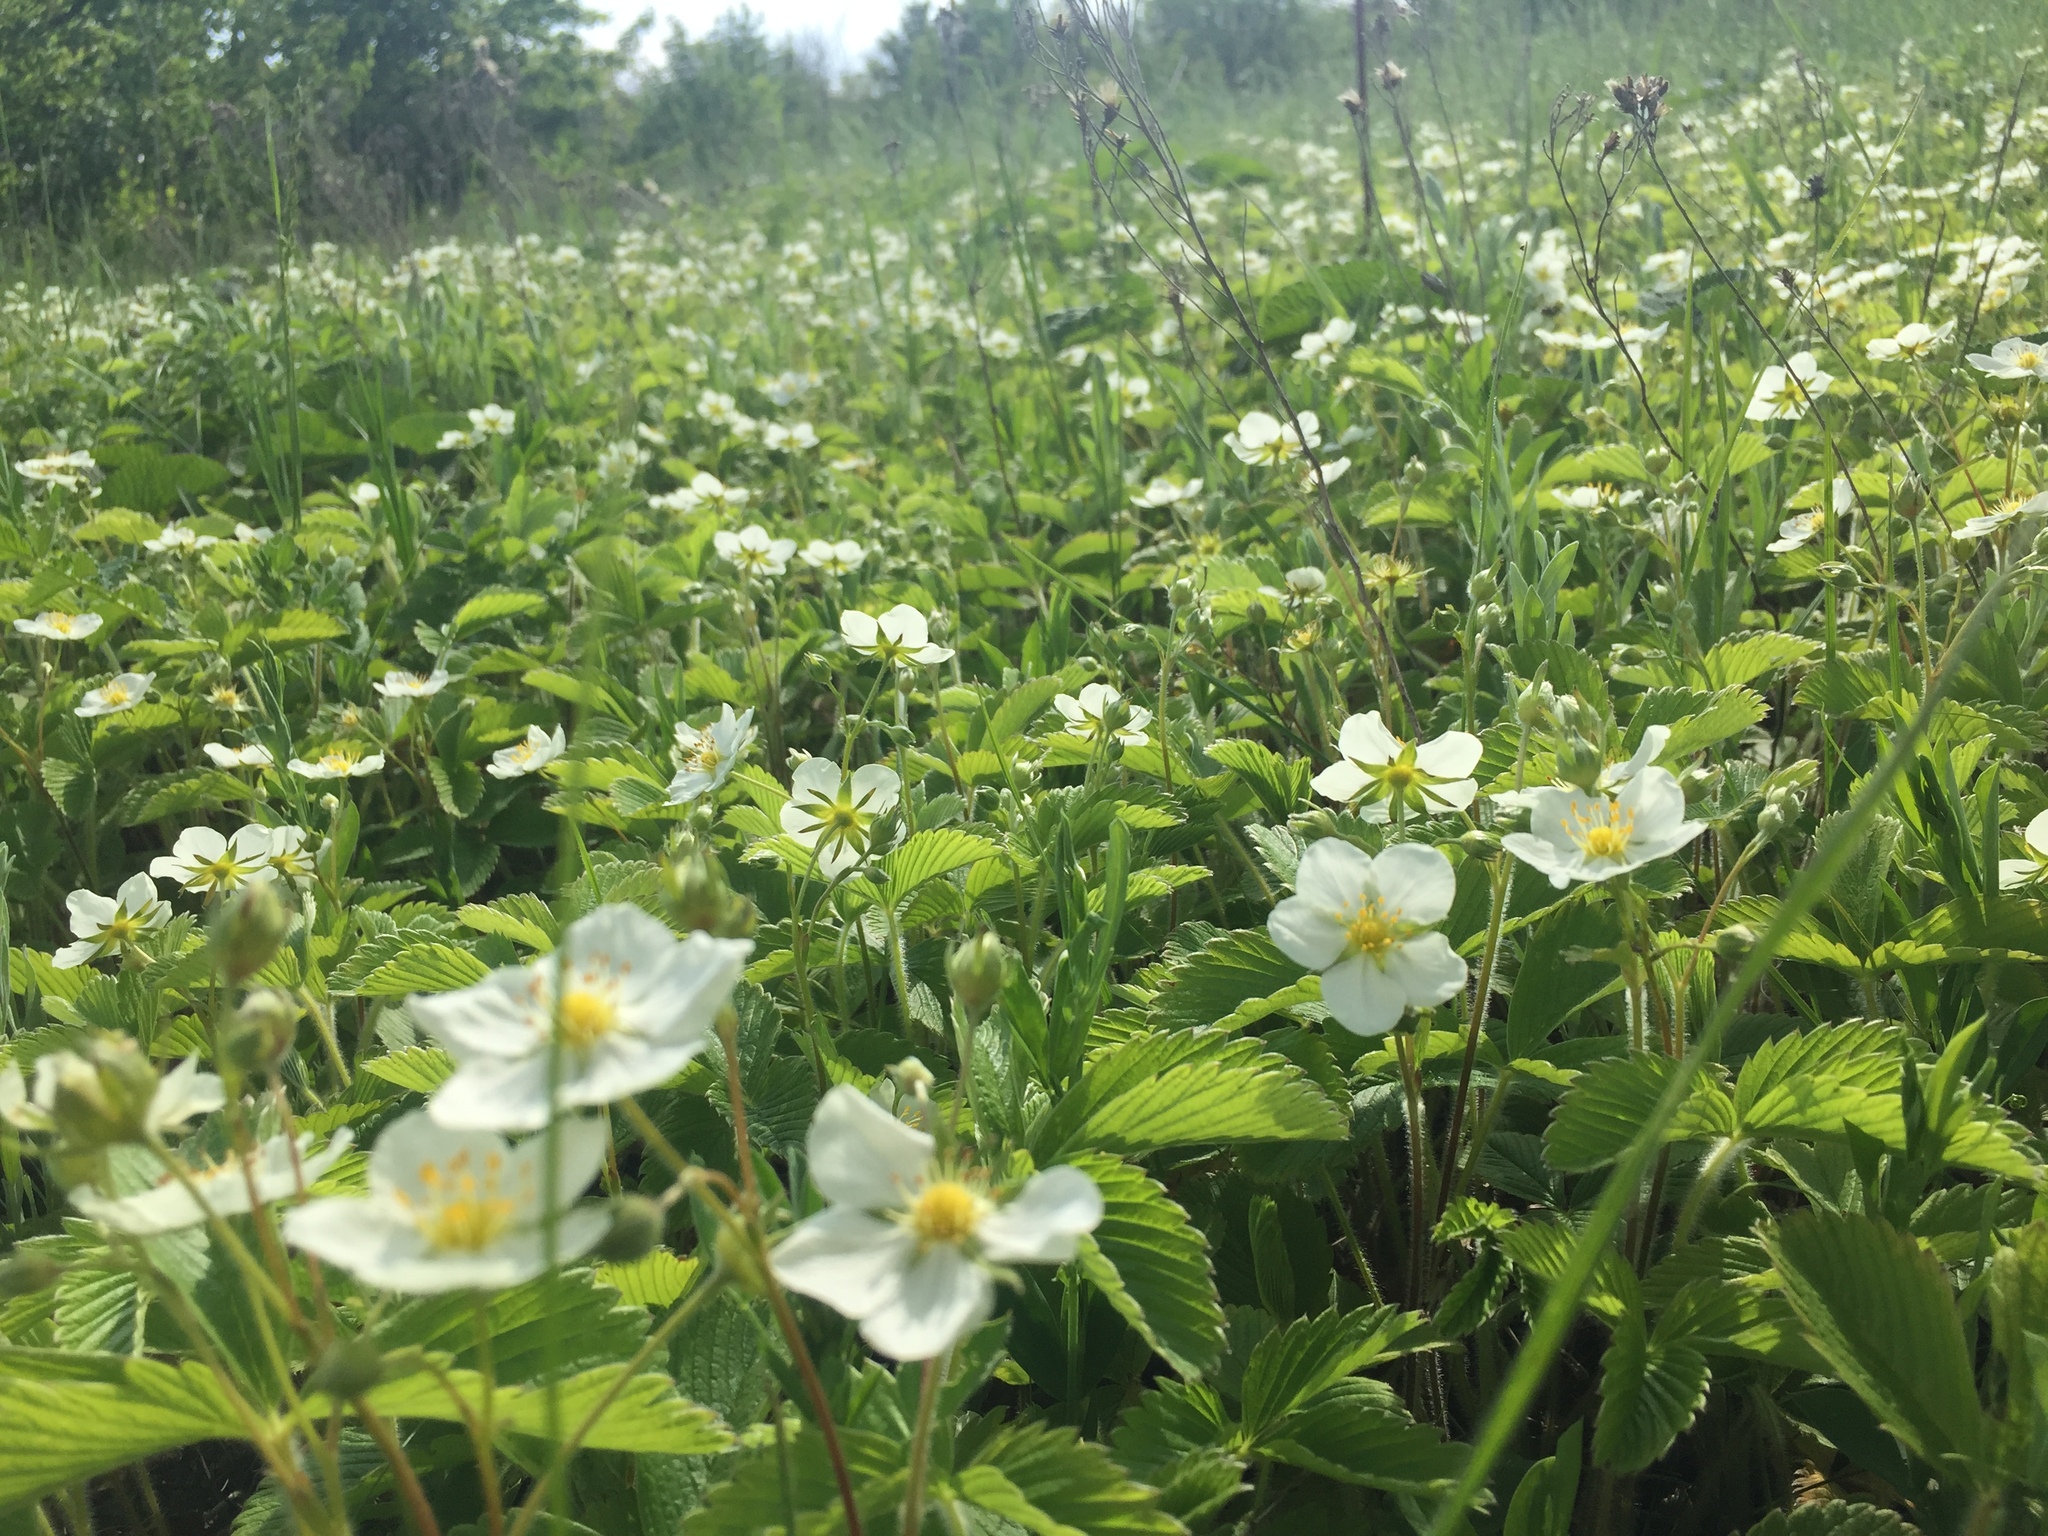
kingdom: Plantae
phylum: Tracheophyta
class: Magnoliopsida
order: Rosales
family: Rosaceae
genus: Fragaria
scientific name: Fragaria viridis
